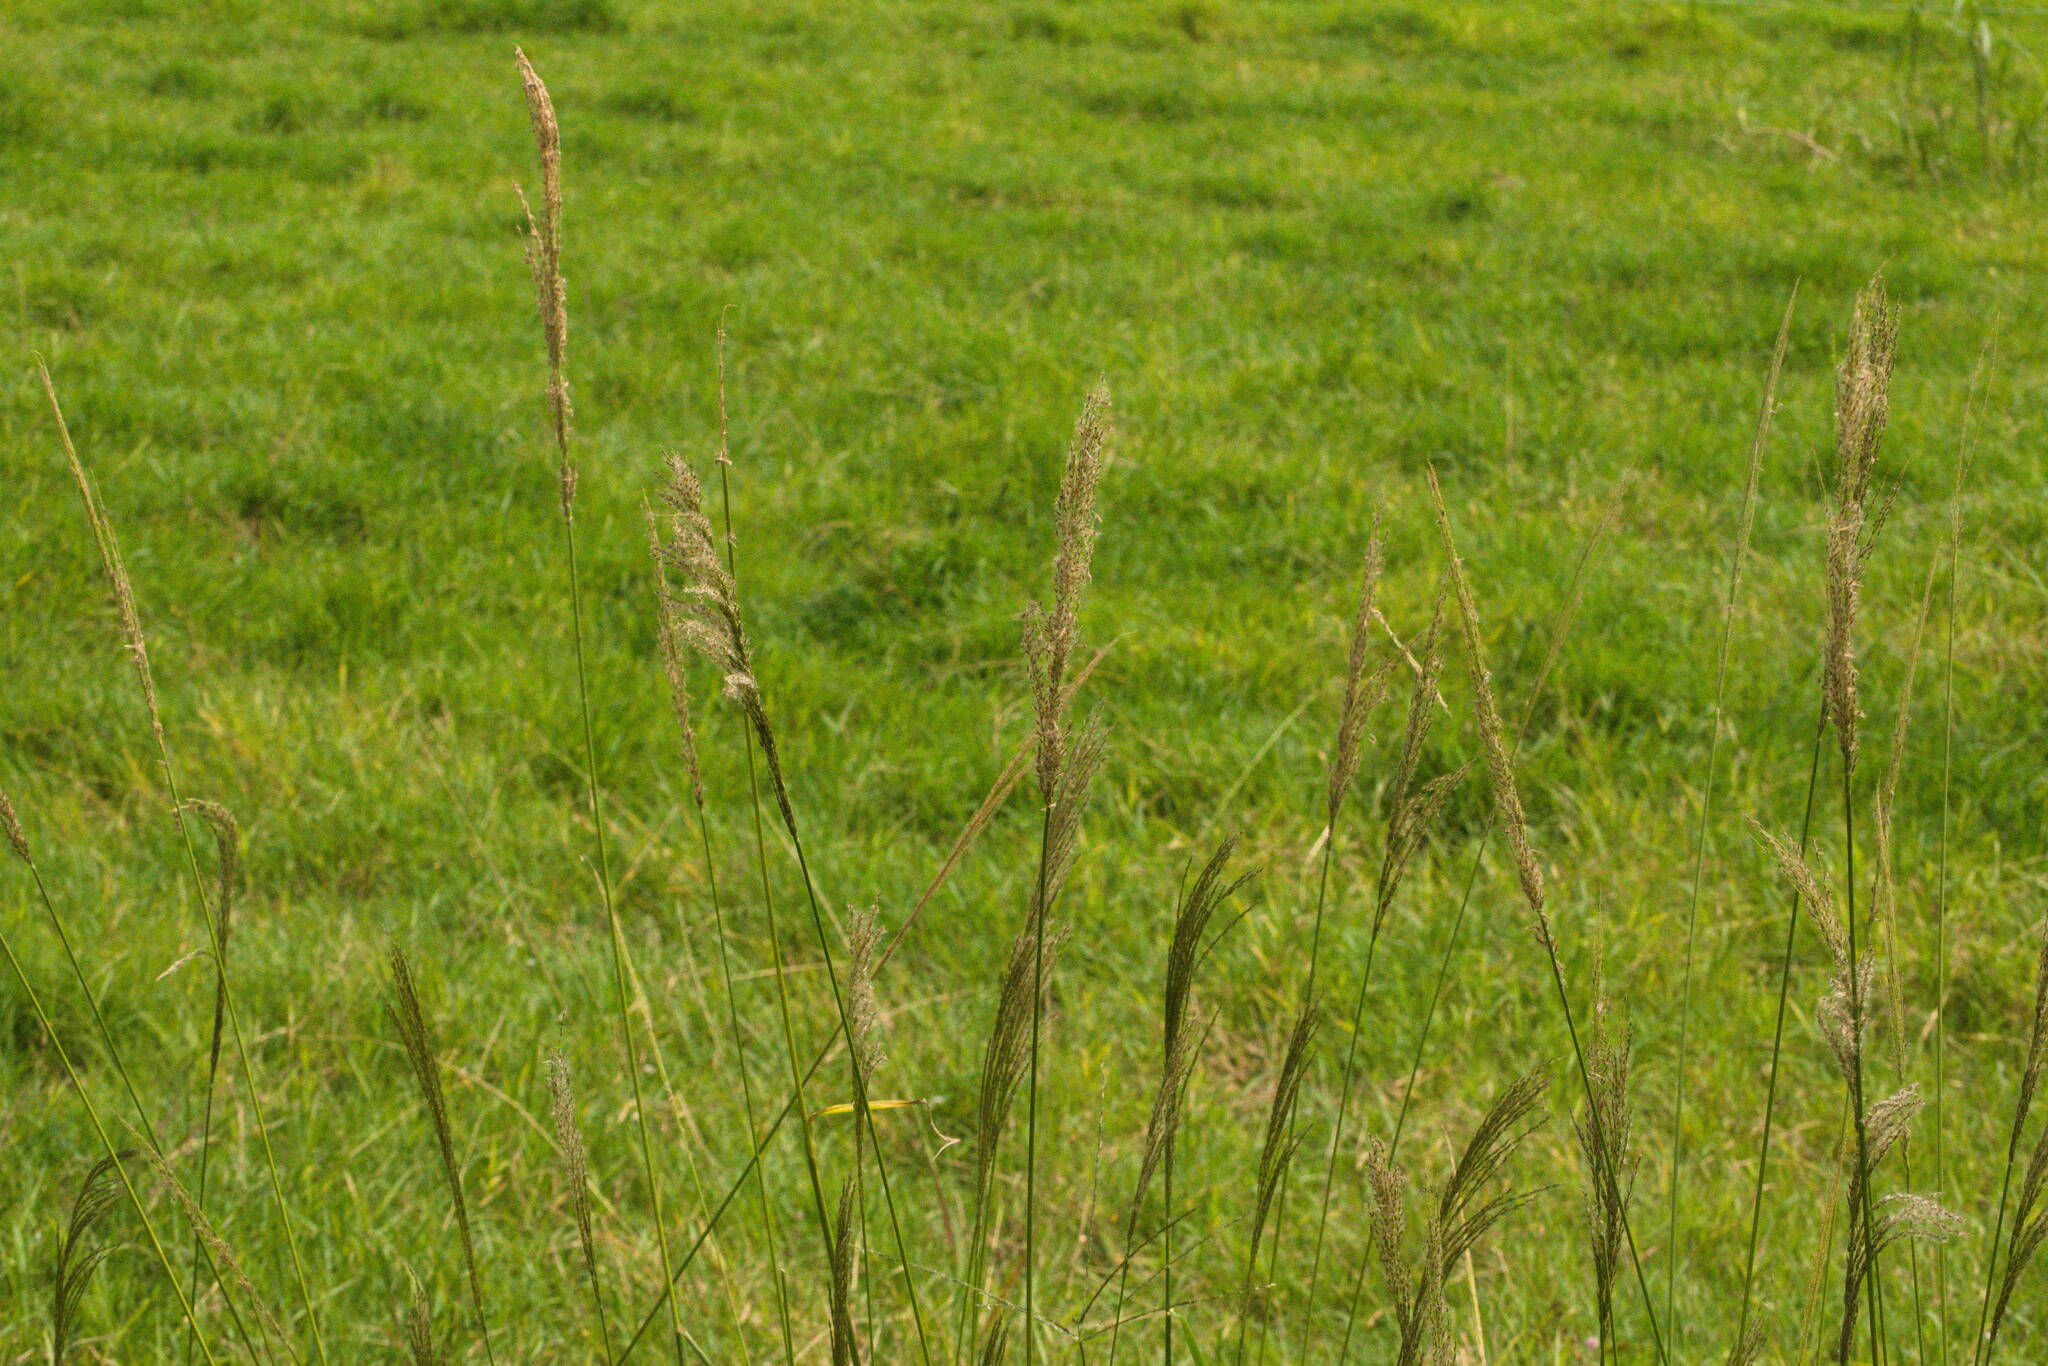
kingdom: Plantae
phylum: Tracheophyta
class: Liliopsida
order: Poales
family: Poaceae
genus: Digitaria
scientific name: Digitaria insularis
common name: Sourgrass
